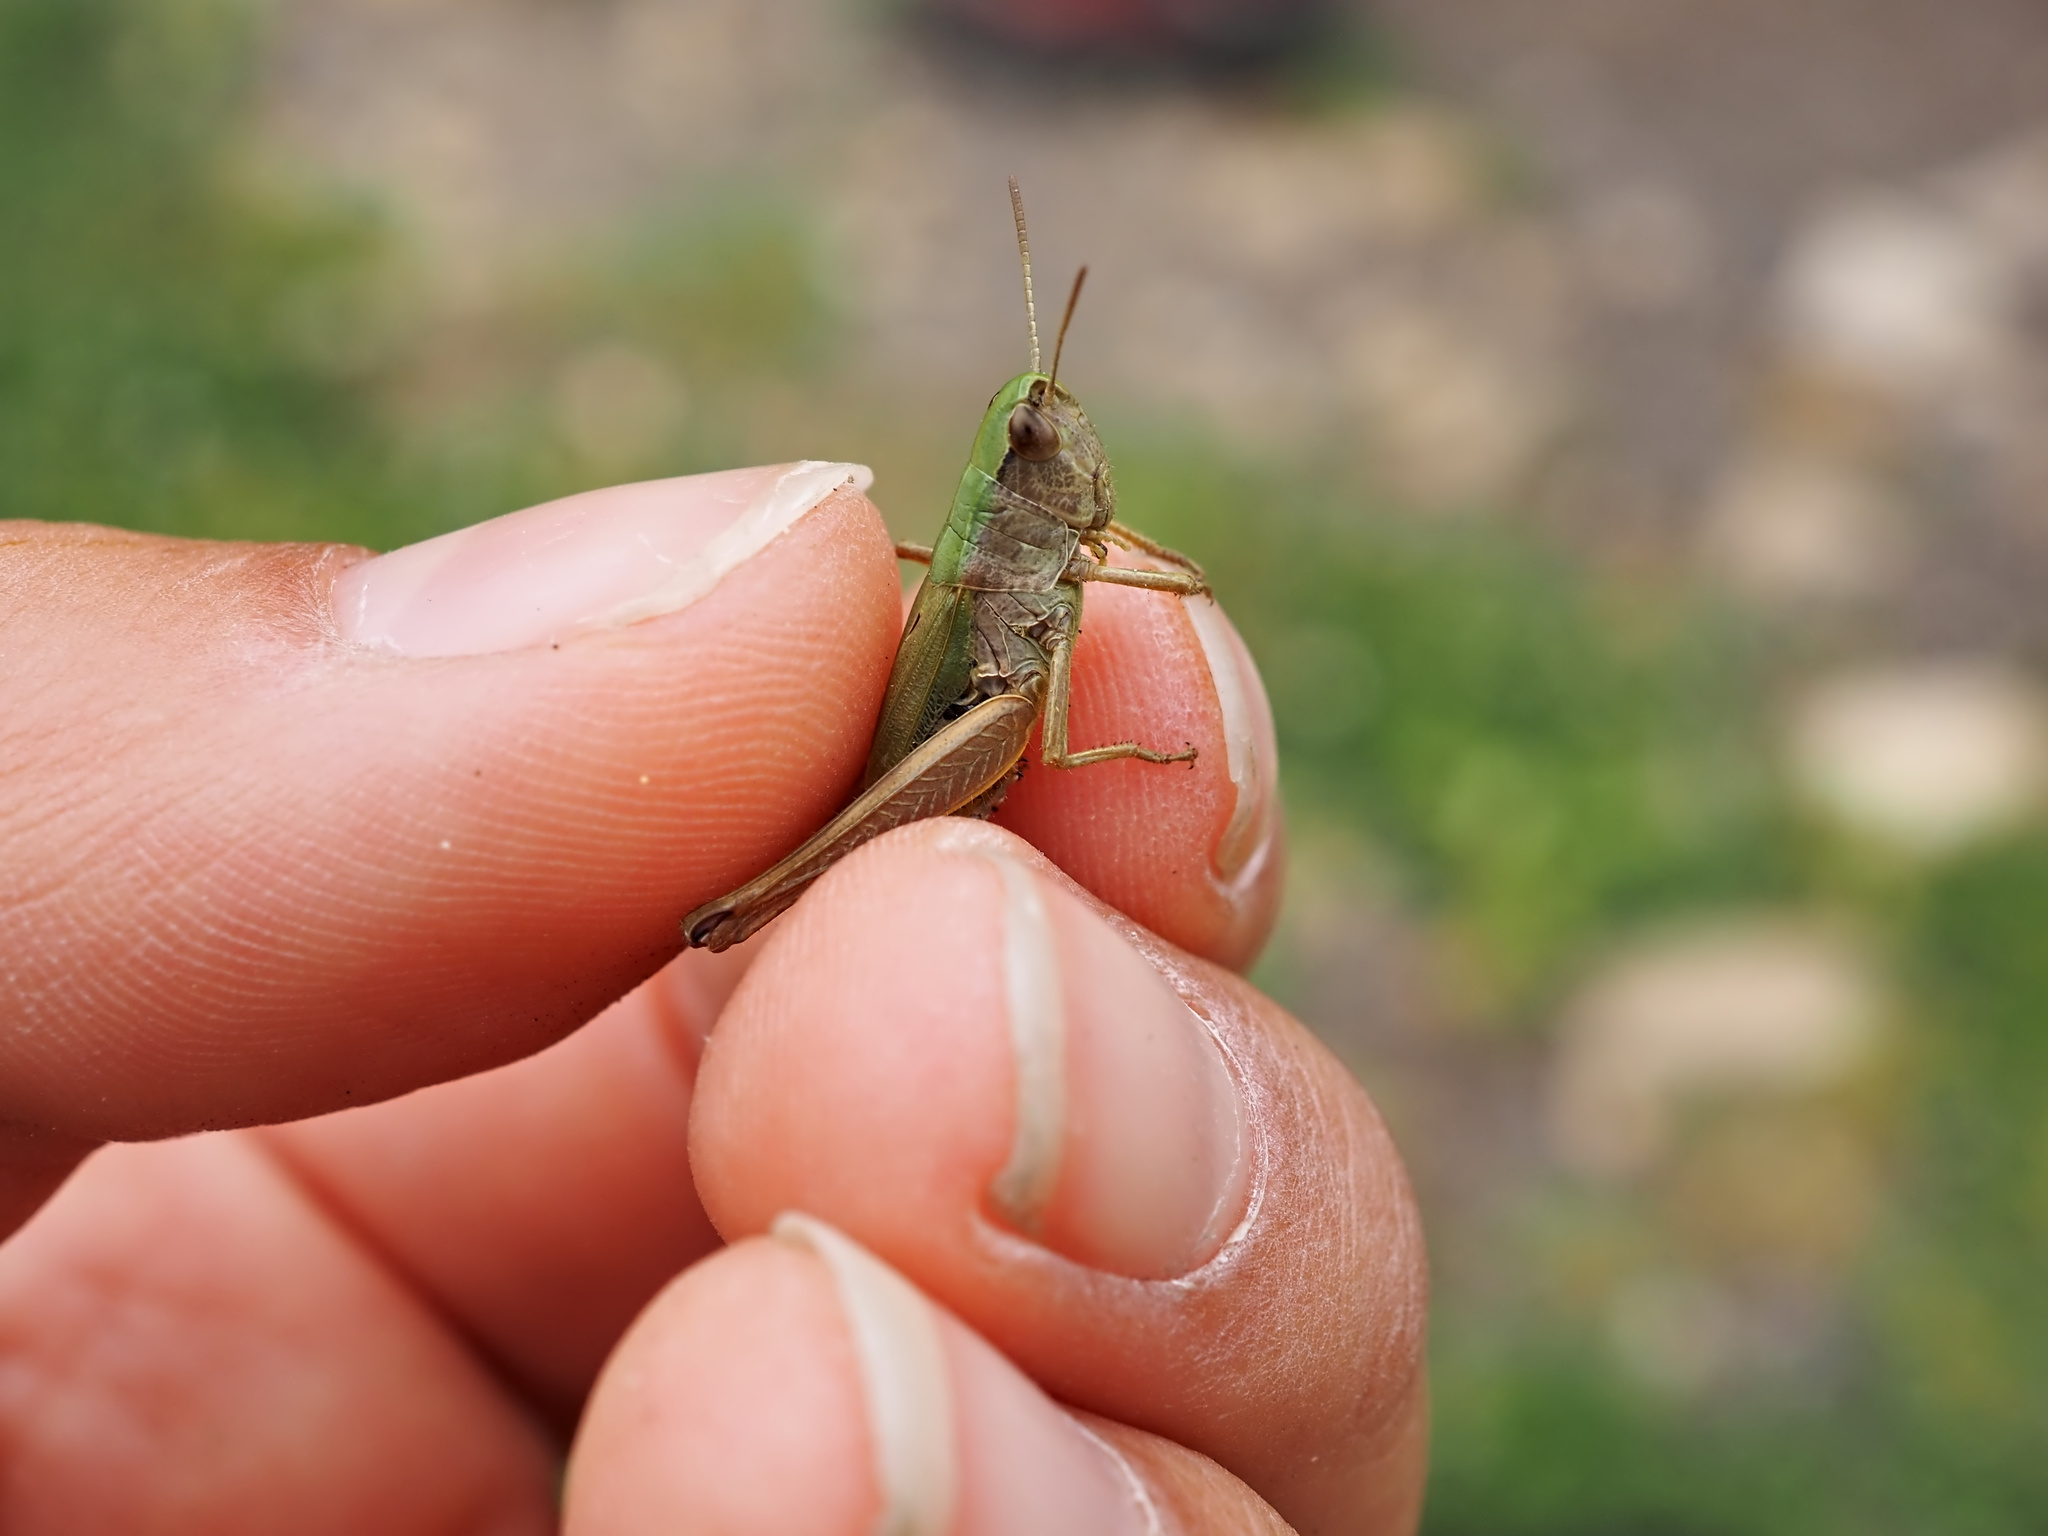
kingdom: Animalia
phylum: Arthropoda
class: Insecta
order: Orthoptera
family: Acrididae
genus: Pseudochorthippus
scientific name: Pseudochorthippus parallelus
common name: Meadow grasshopper
